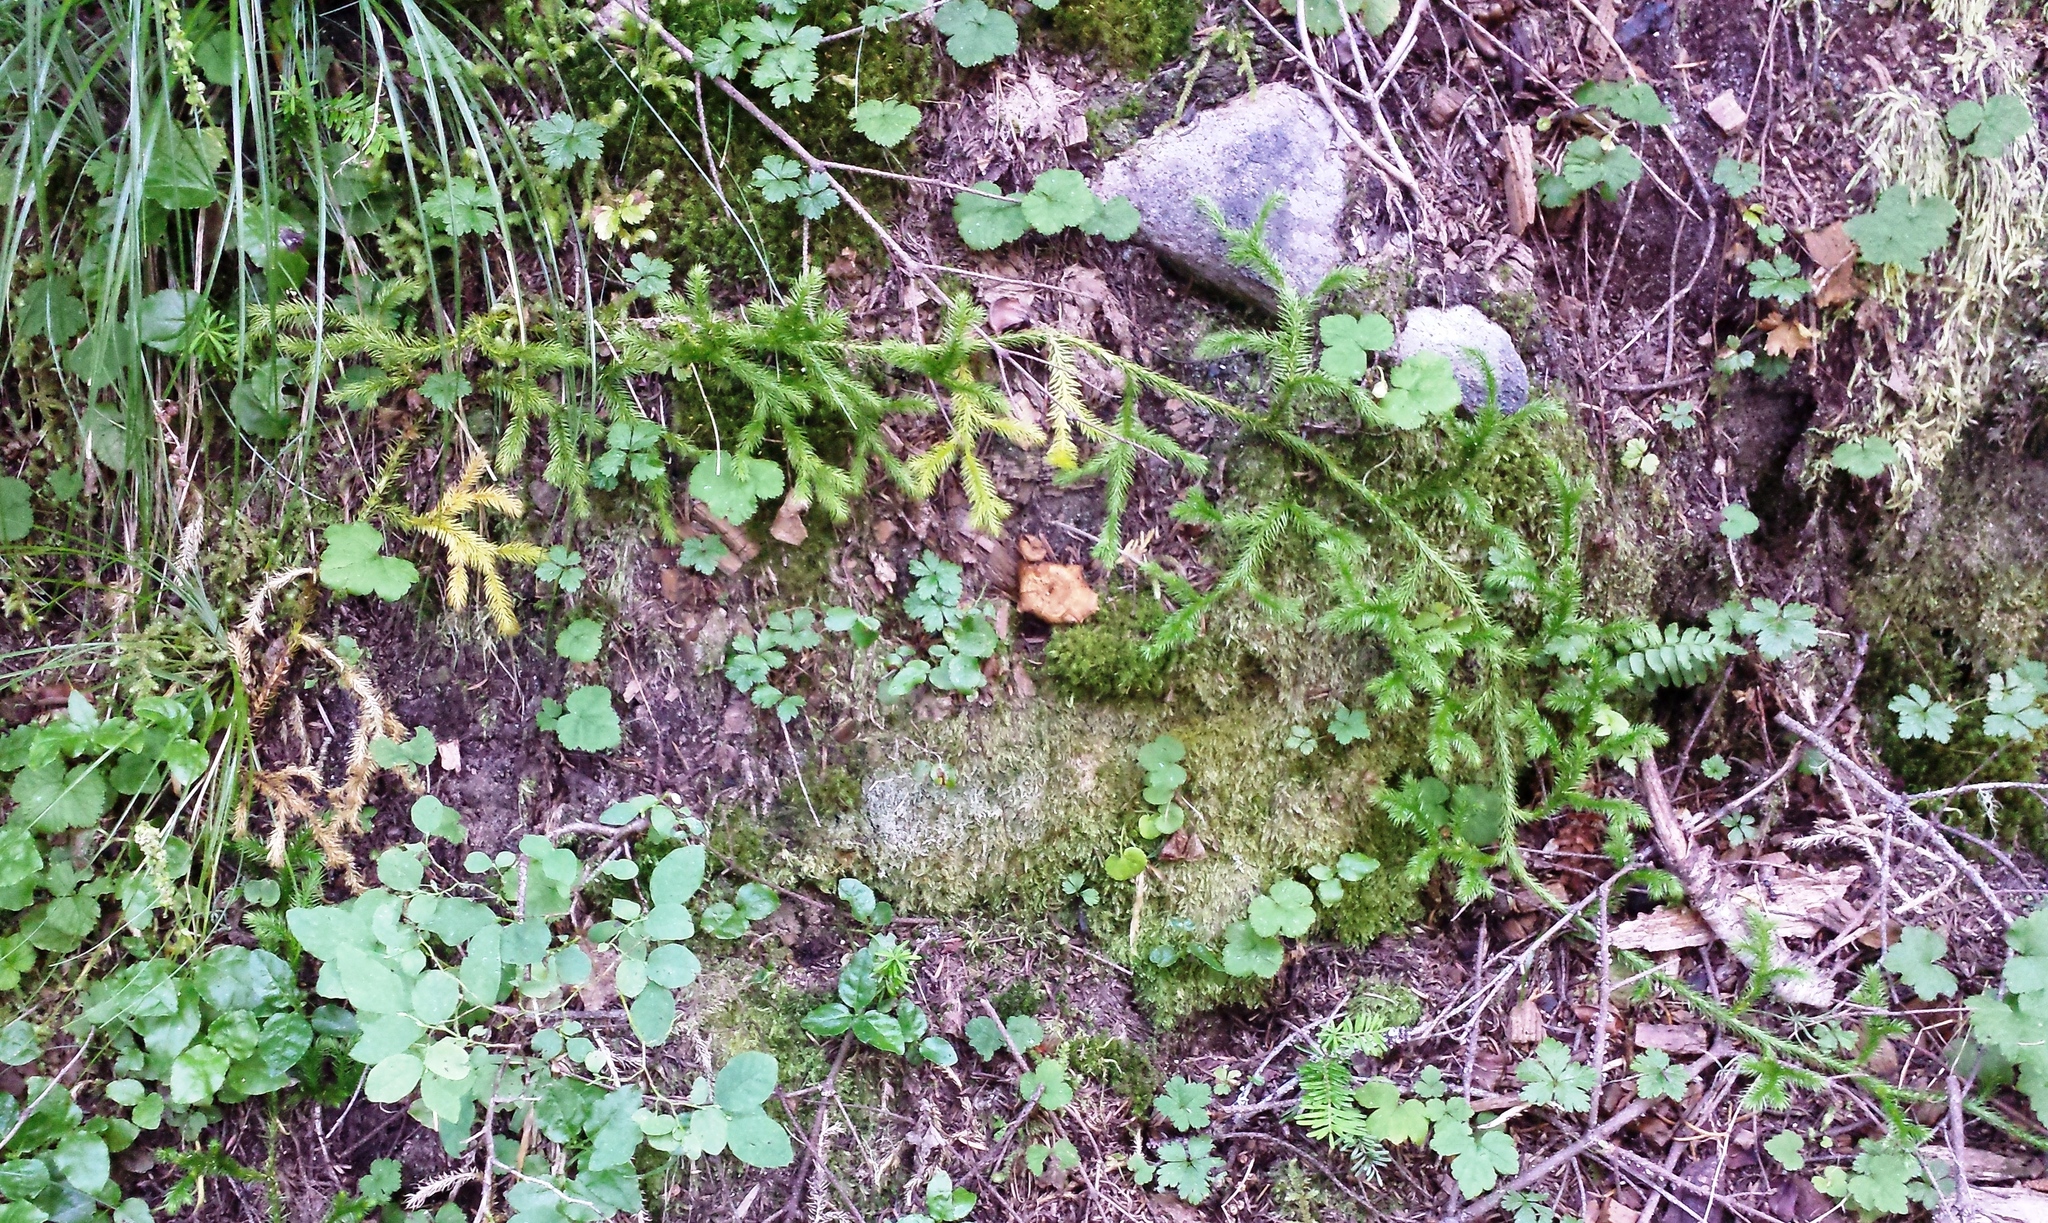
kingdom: Plantae
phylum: Tracheophyta
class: Lycopodiopsida
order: Lycopodiales
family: Lycopodiaceae
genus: Lycopodium
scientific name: Lycopodium clavatum
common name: Stag's-horn clubmoss
